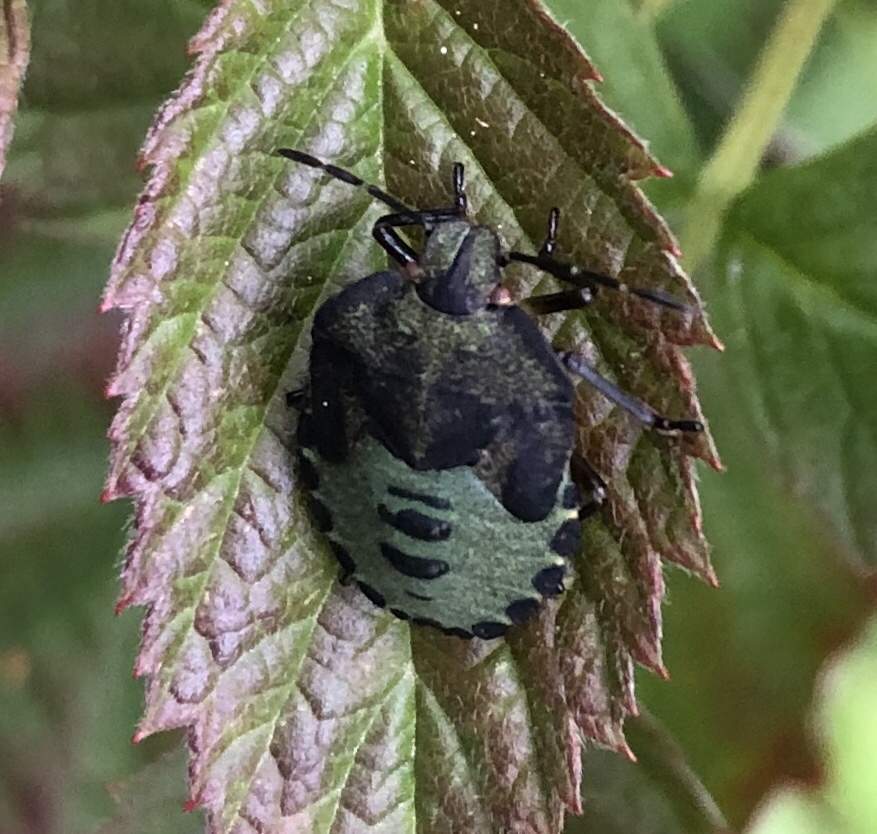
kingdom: Animalia
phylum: Arthropoda
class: Insecta
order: Hemiptera
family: Pentatomidae
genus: Palomena
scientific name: Palomena prasina
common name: Green shieldbug
